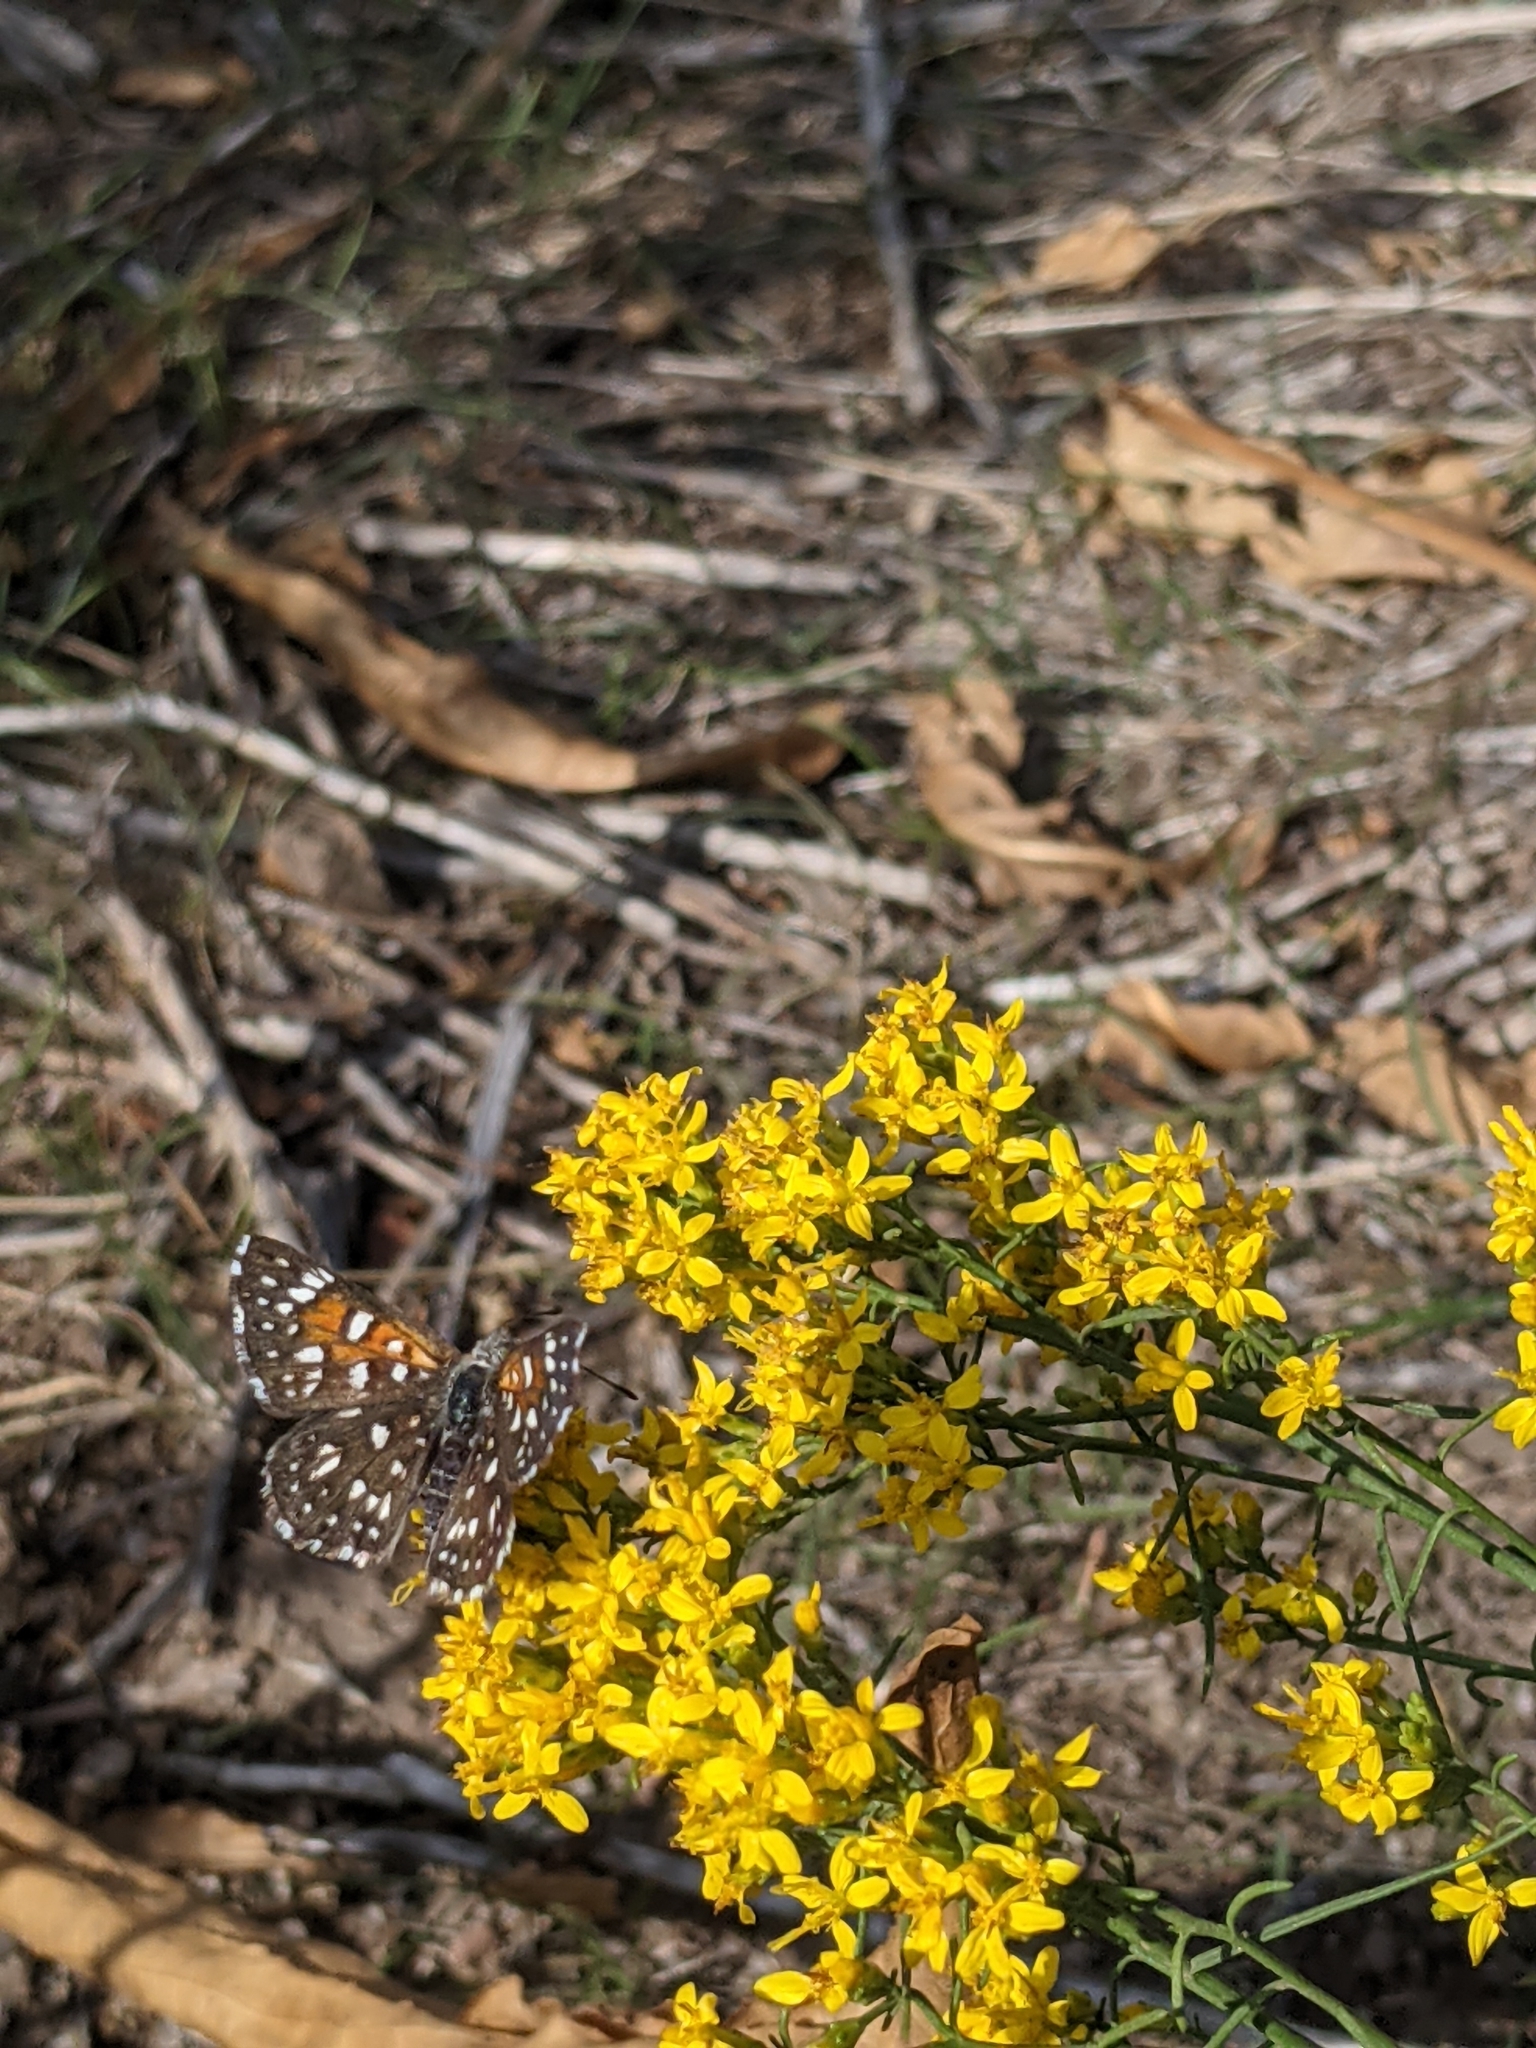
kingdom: Animalia
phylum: Arthropoda
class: Insecta
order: Lepidoptera
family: Riodinidae
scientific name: Riodinidae
